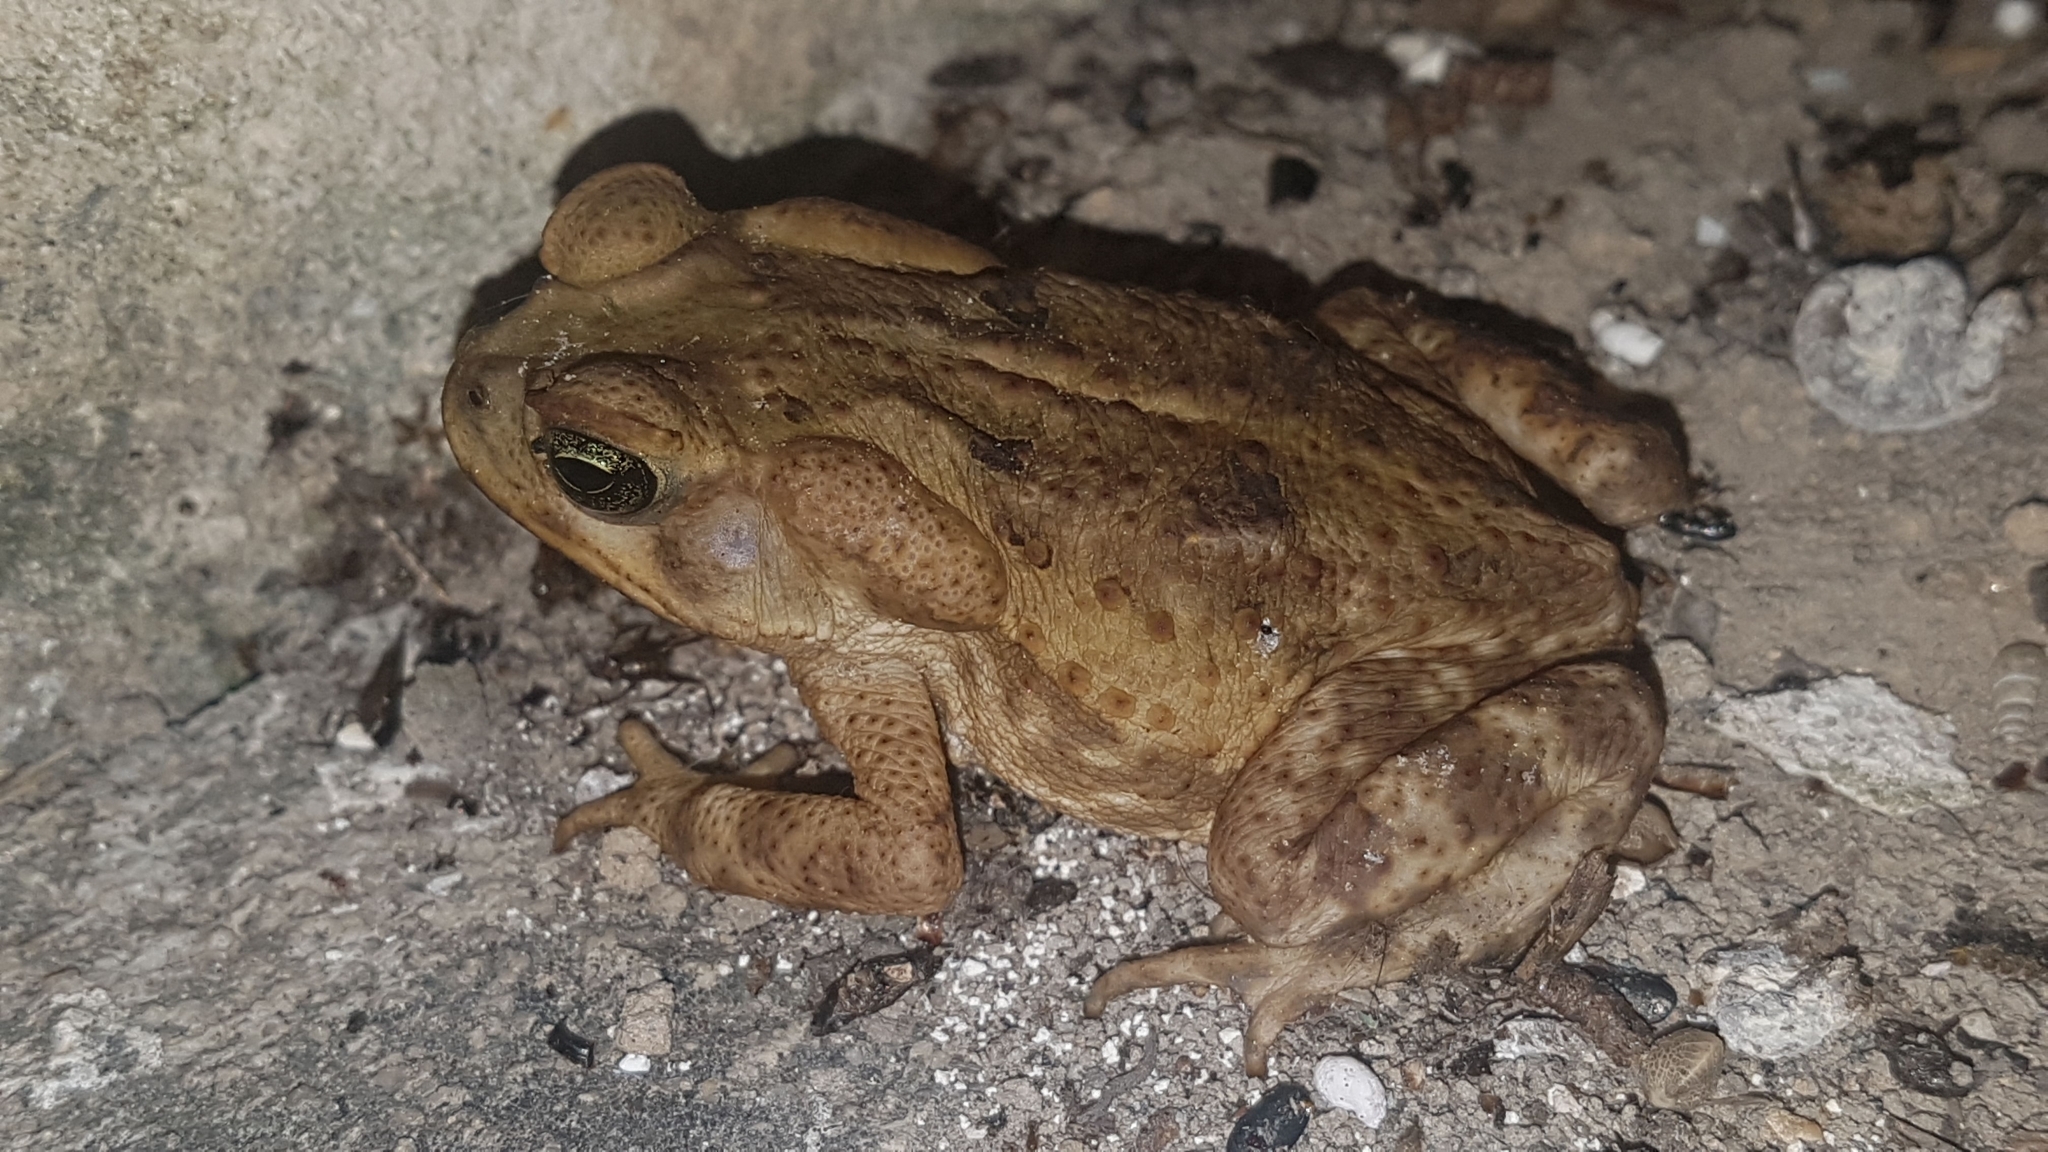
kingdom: Animalia
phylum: Chordata
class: Amphibia
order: Anura
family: Bufonidae
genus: Rhinella
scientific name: Rhinella icterica
